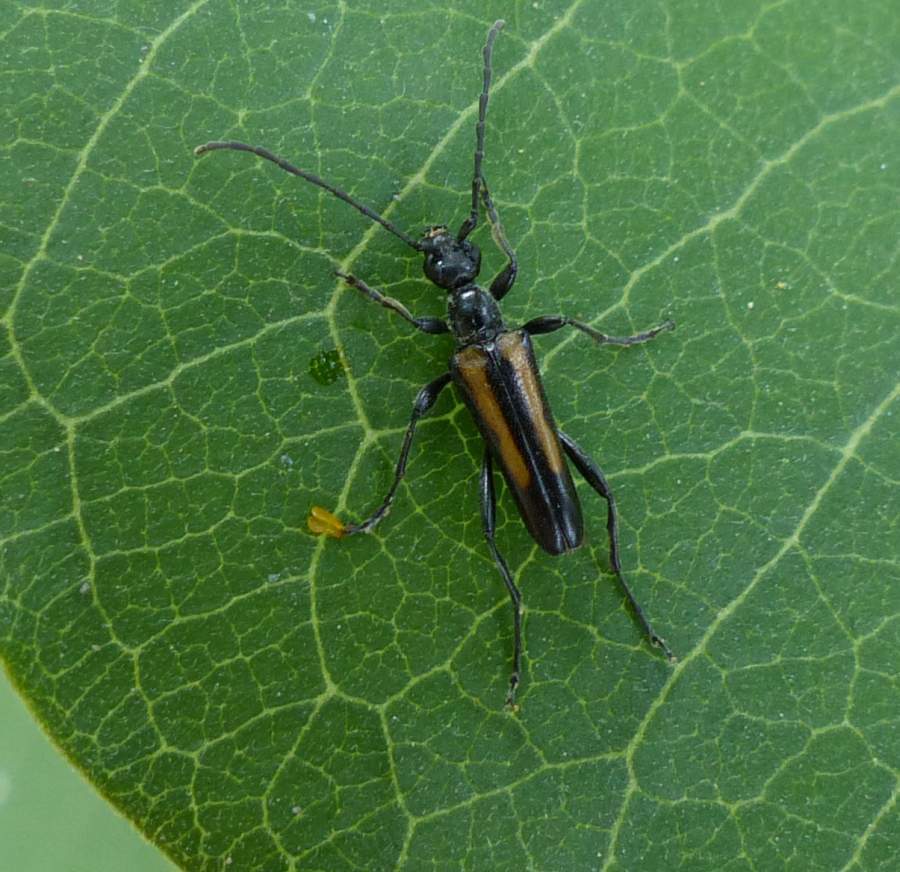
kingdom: Animalia
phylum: Arthropoda
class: Insecta
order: Coleoptera
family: Cerambycidae
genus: Strangalepta
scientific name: Strangalepta abbreviata
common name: Strangalepta flower longhorn beetle
